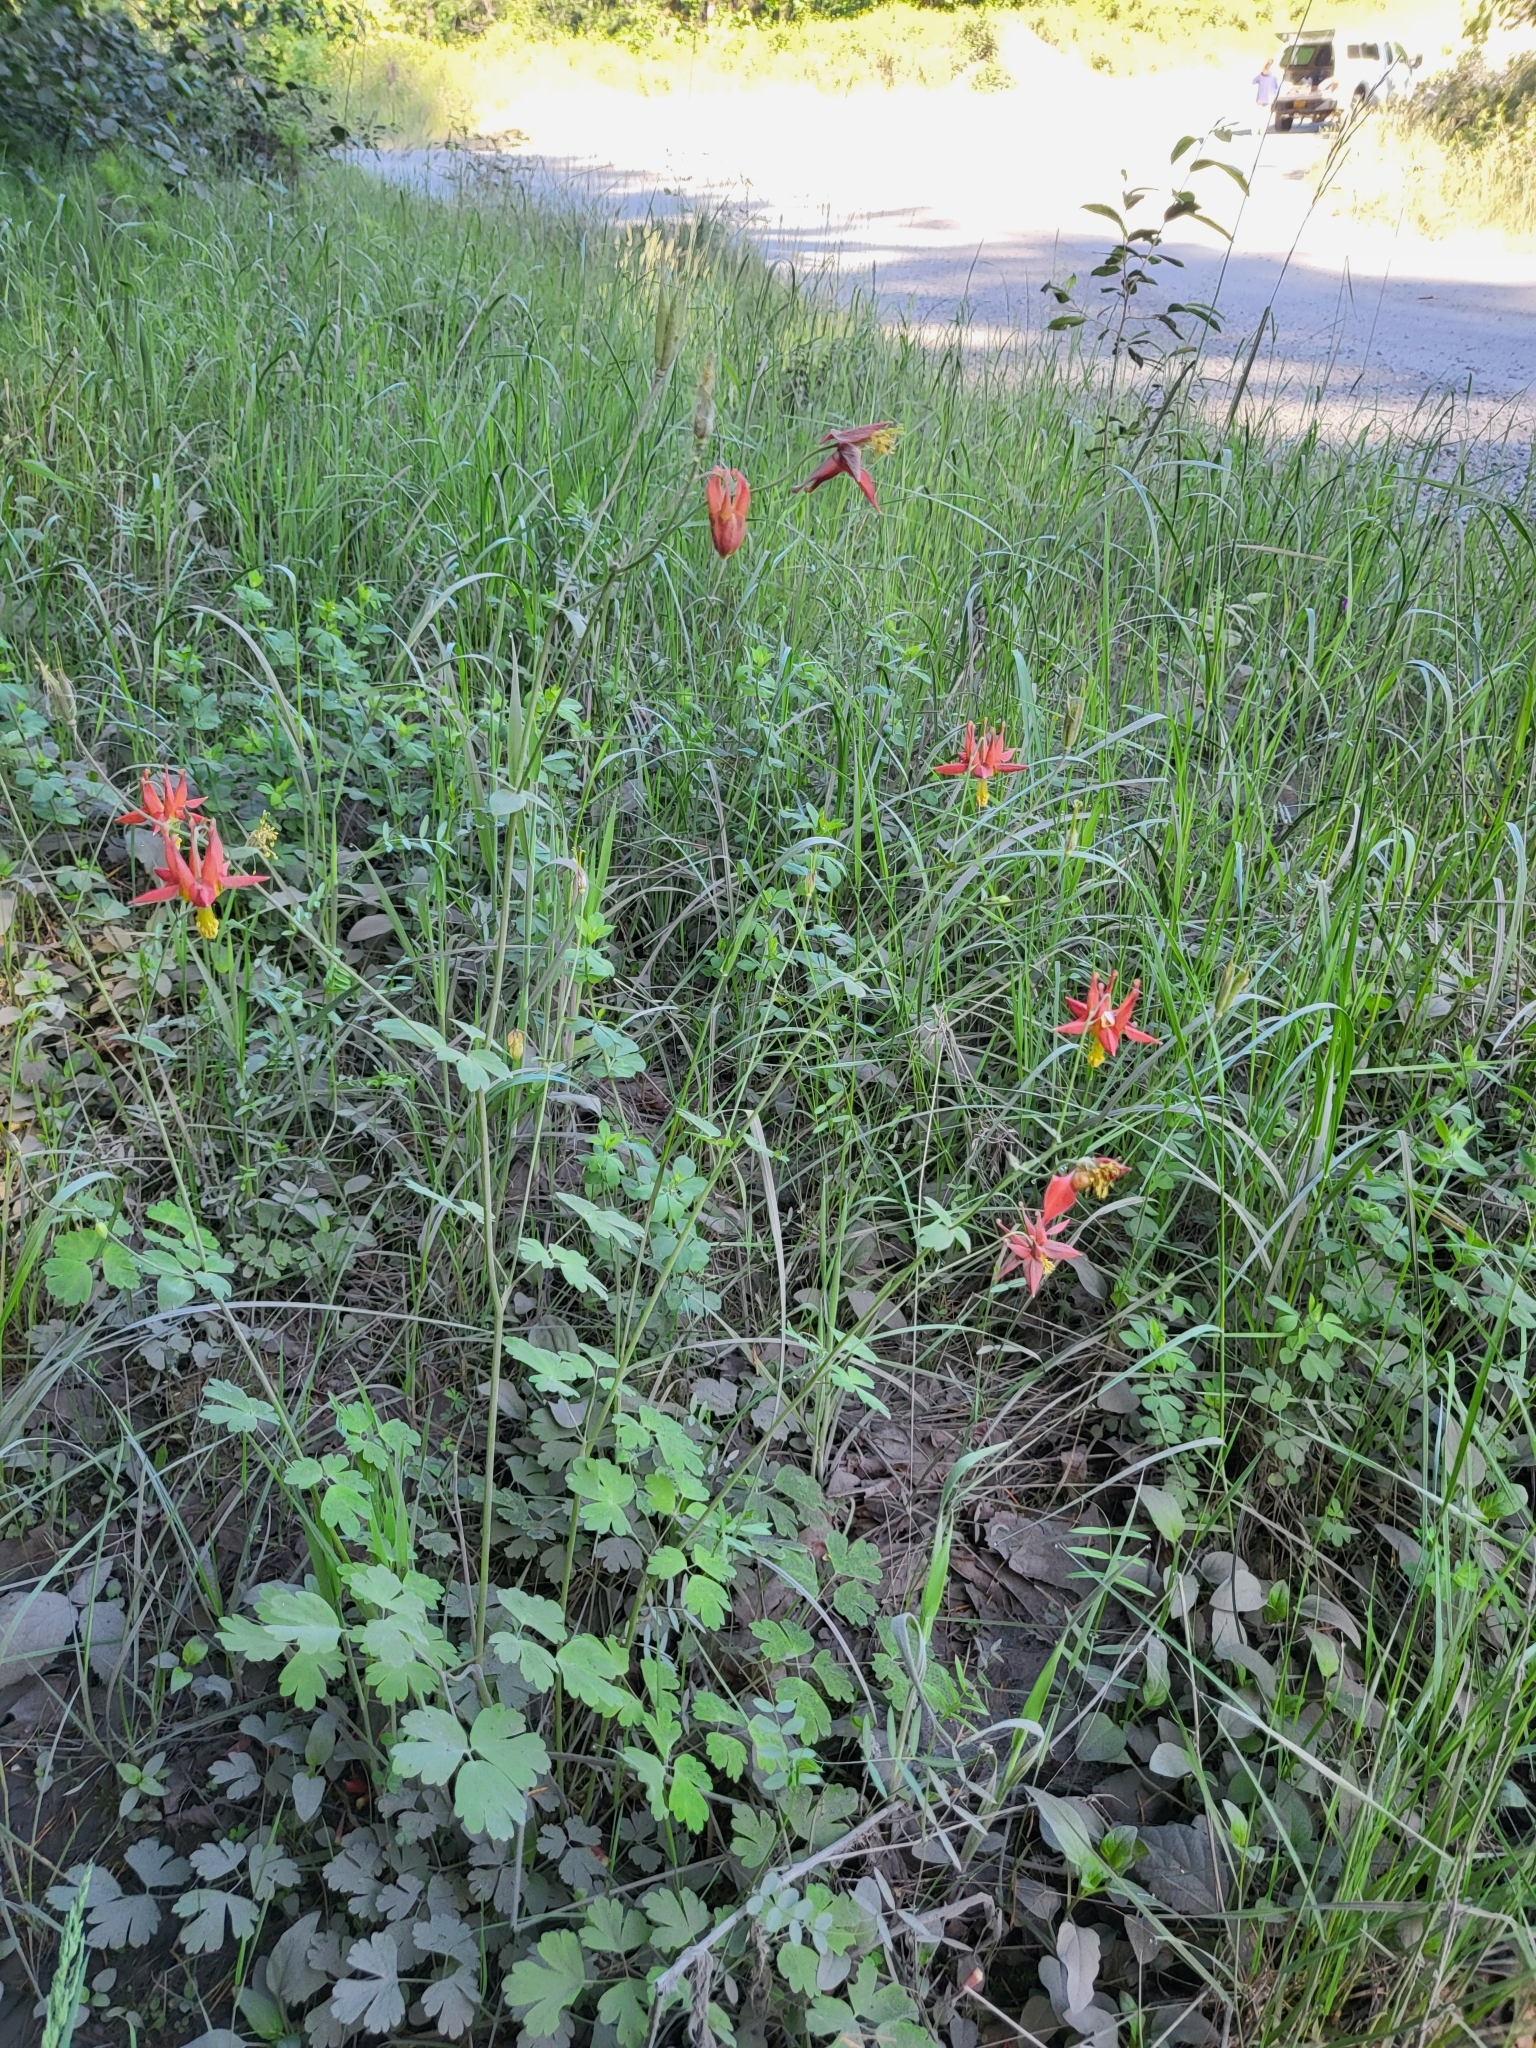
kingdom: Plantae
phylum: Tracheophyta
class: Magnoliopsida
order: Ranunculales
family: Ranunculaceae
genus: Aquilegia
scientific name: Aquilegia formosa
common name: Sitka columbine
